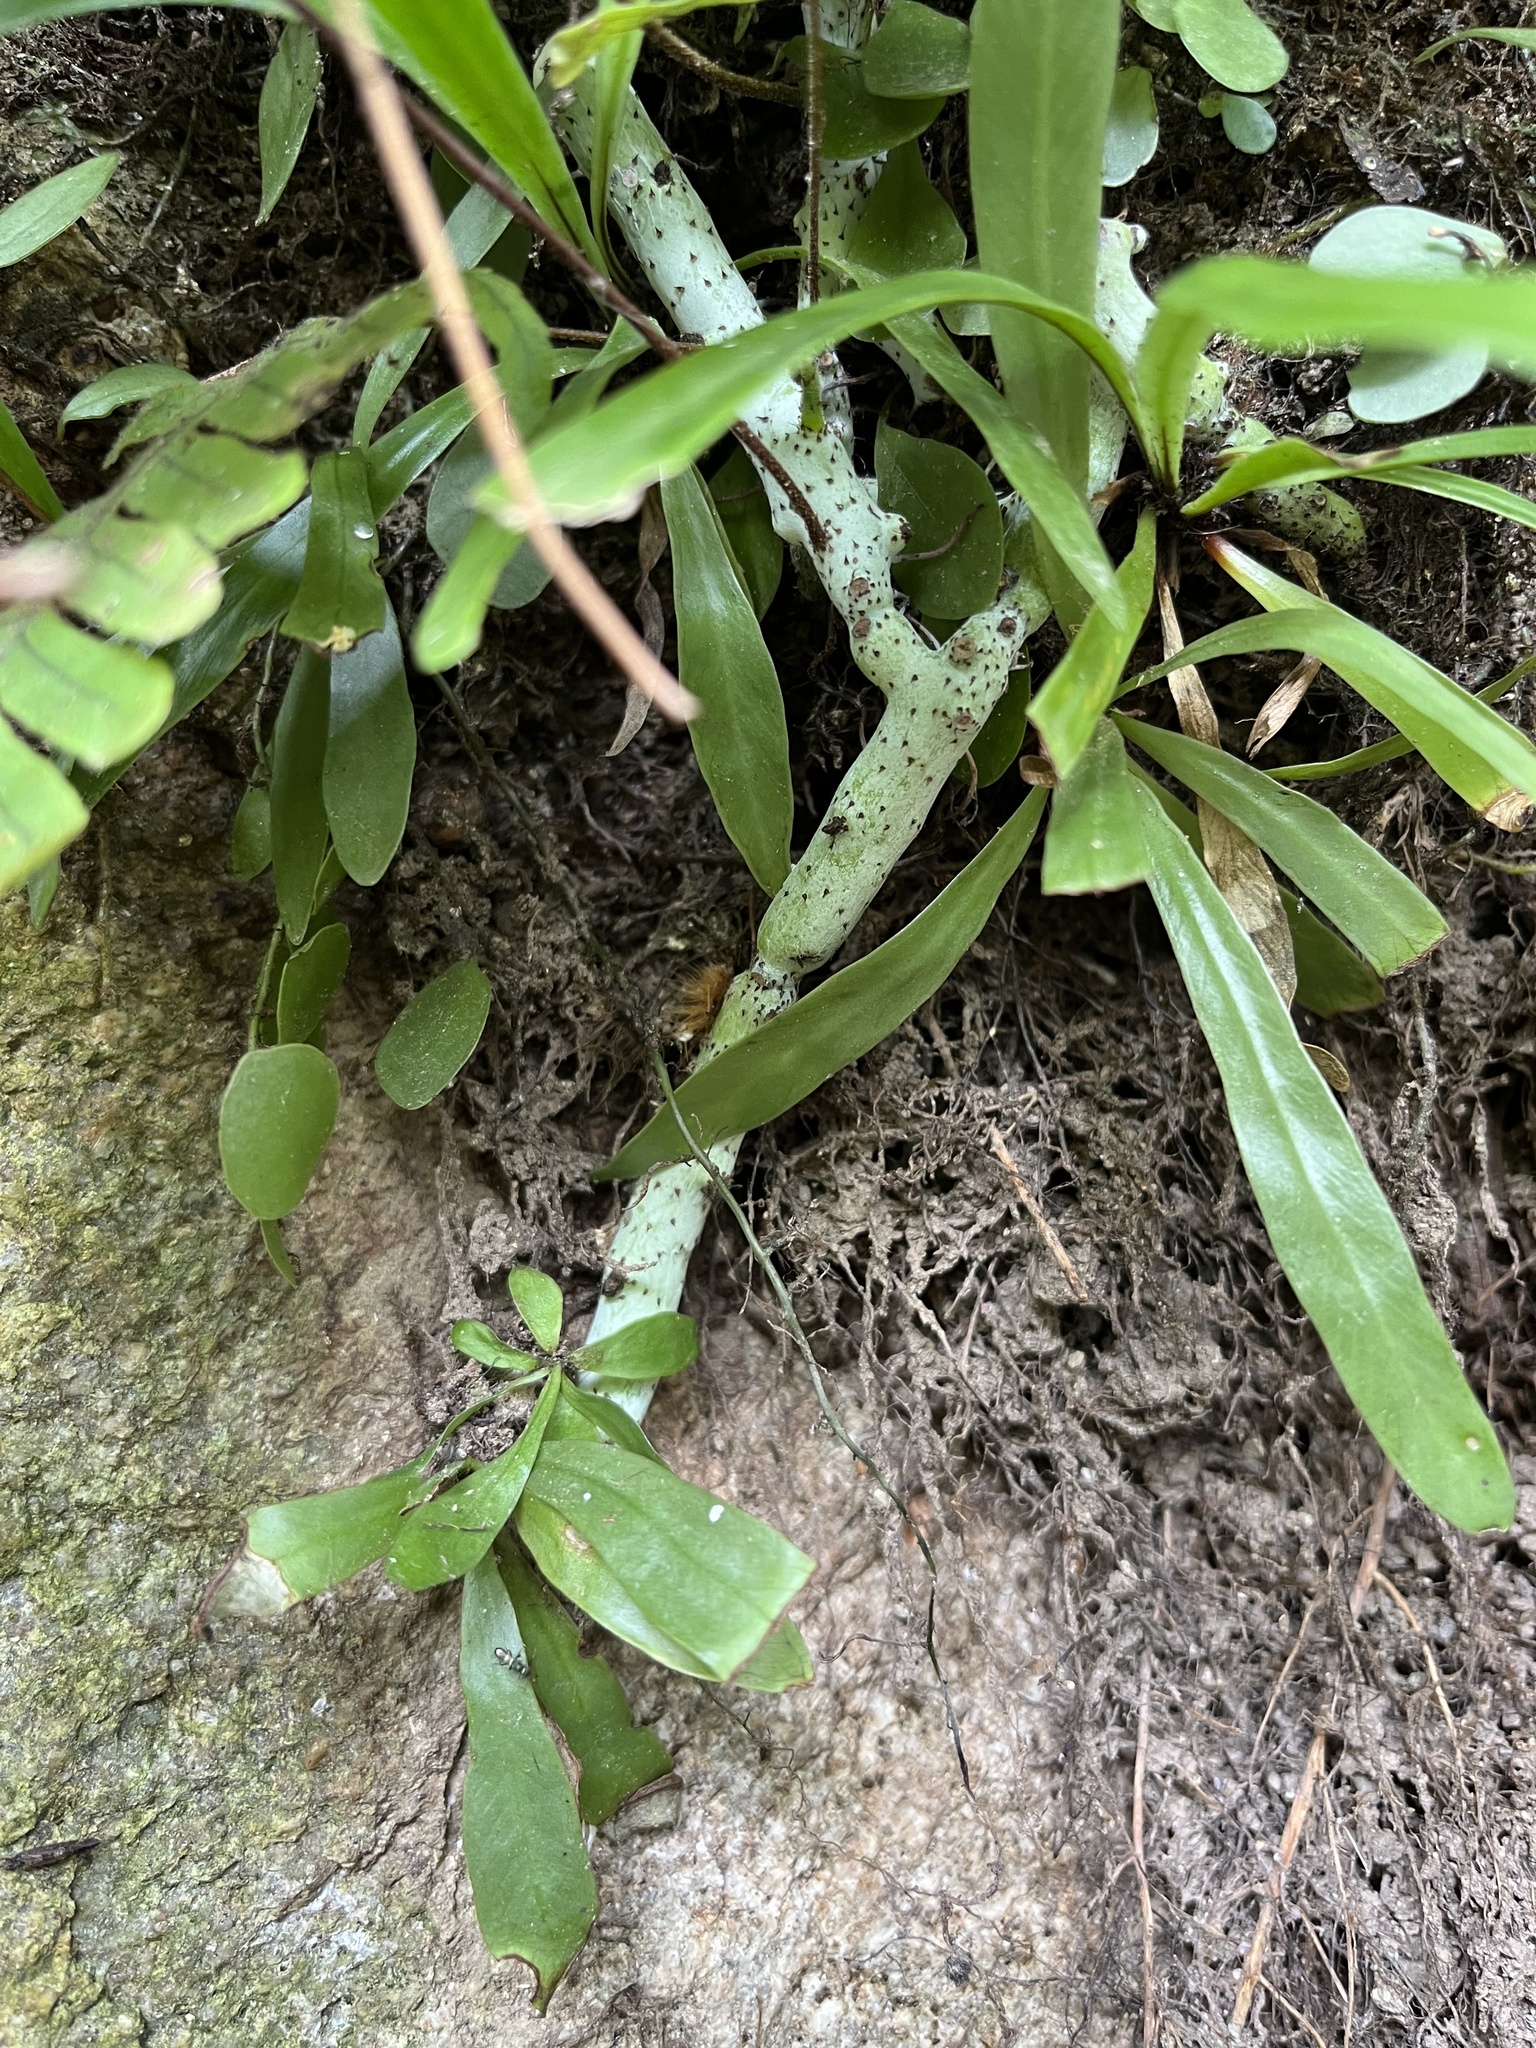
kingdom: Plantae
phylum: Tracheophyta
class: Polypodiopsida
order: Polypodiales
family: Polypodiaceae
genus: Goniophlebium
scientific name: Goniophlebium formosanum
